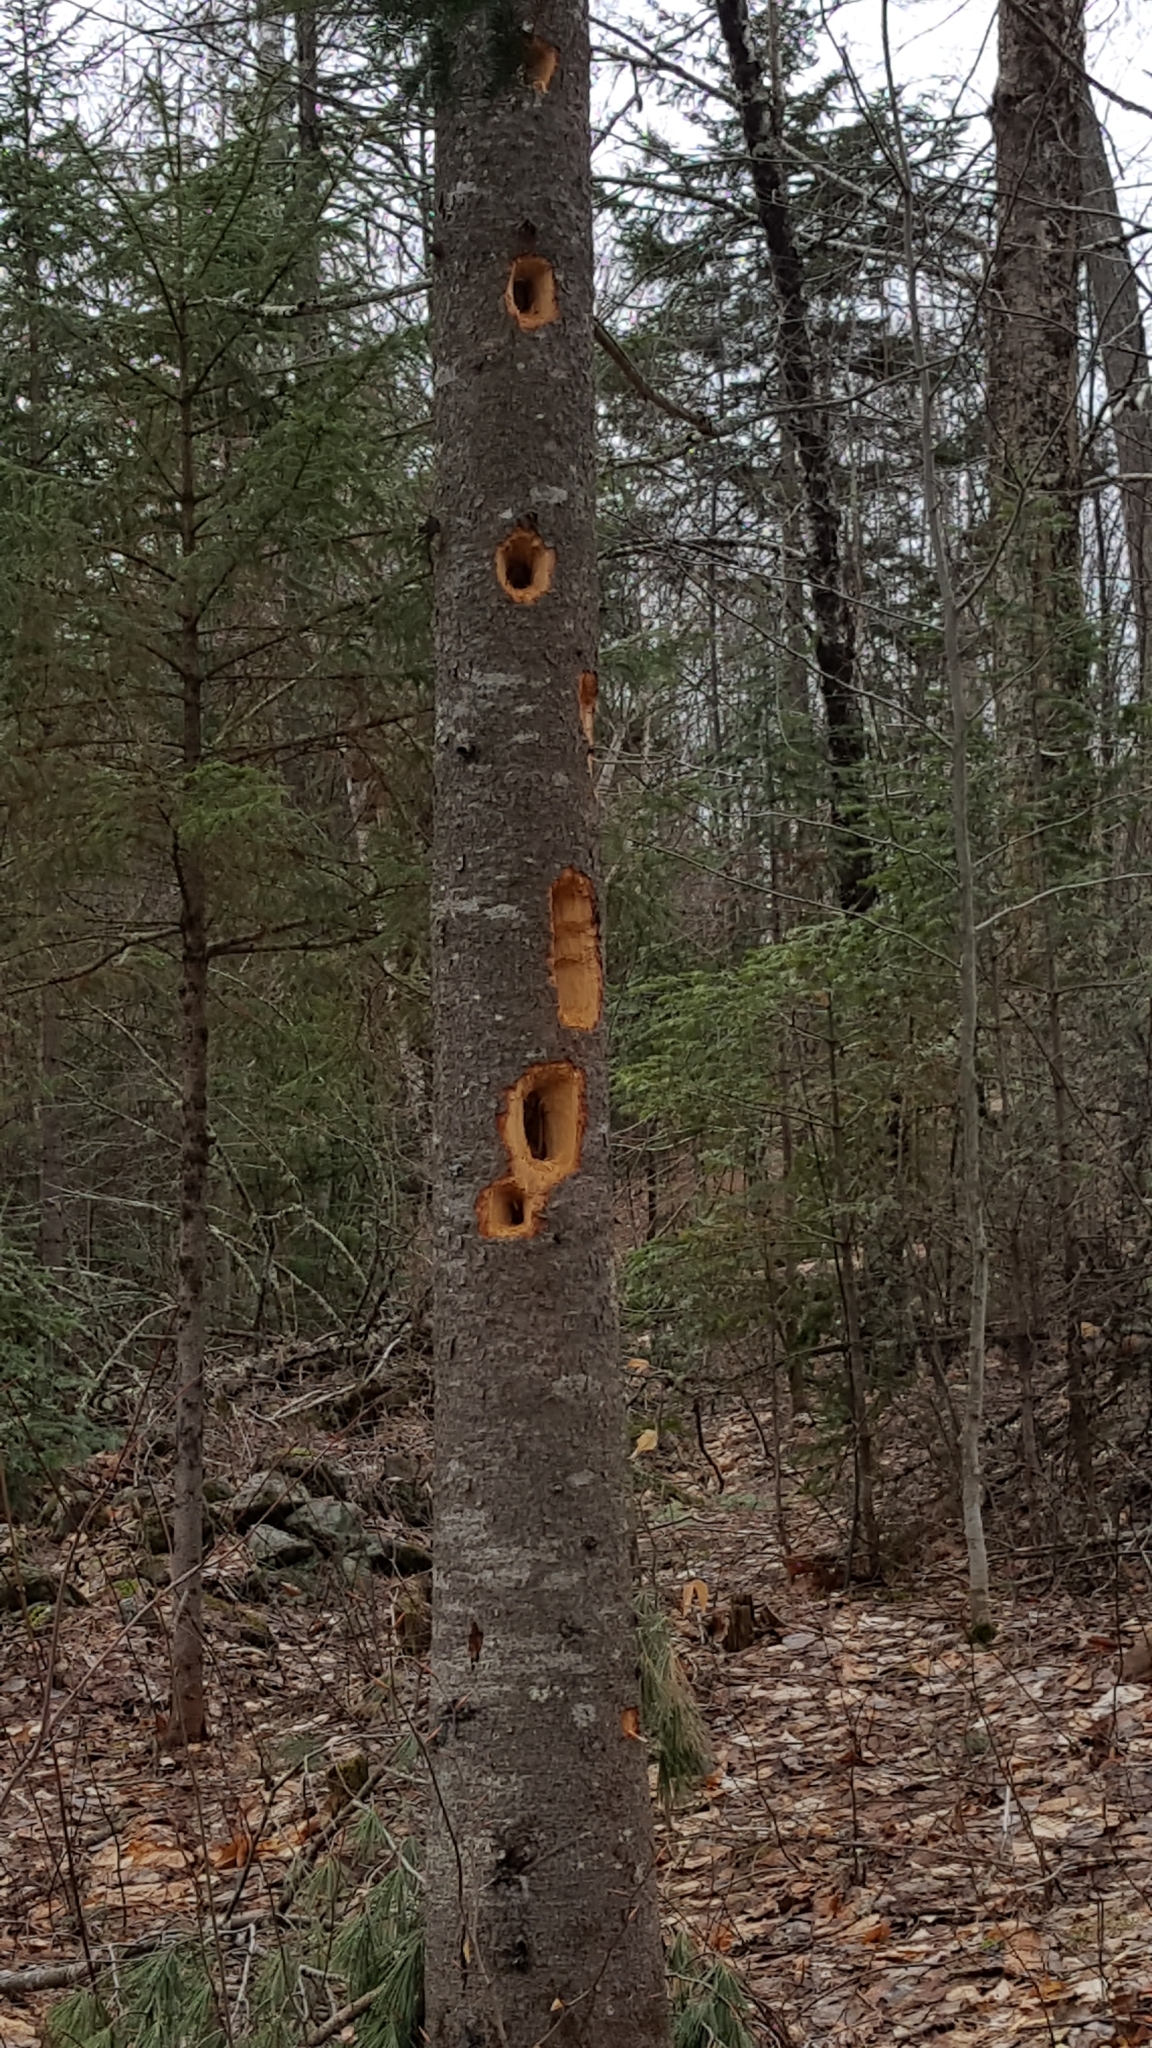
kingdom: Animalia
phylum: Chordata
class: Aves
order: Piciformes
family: Picidae
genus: Dryocopus
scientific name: Dryocopus pileatus
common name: Pileated woodpecker
